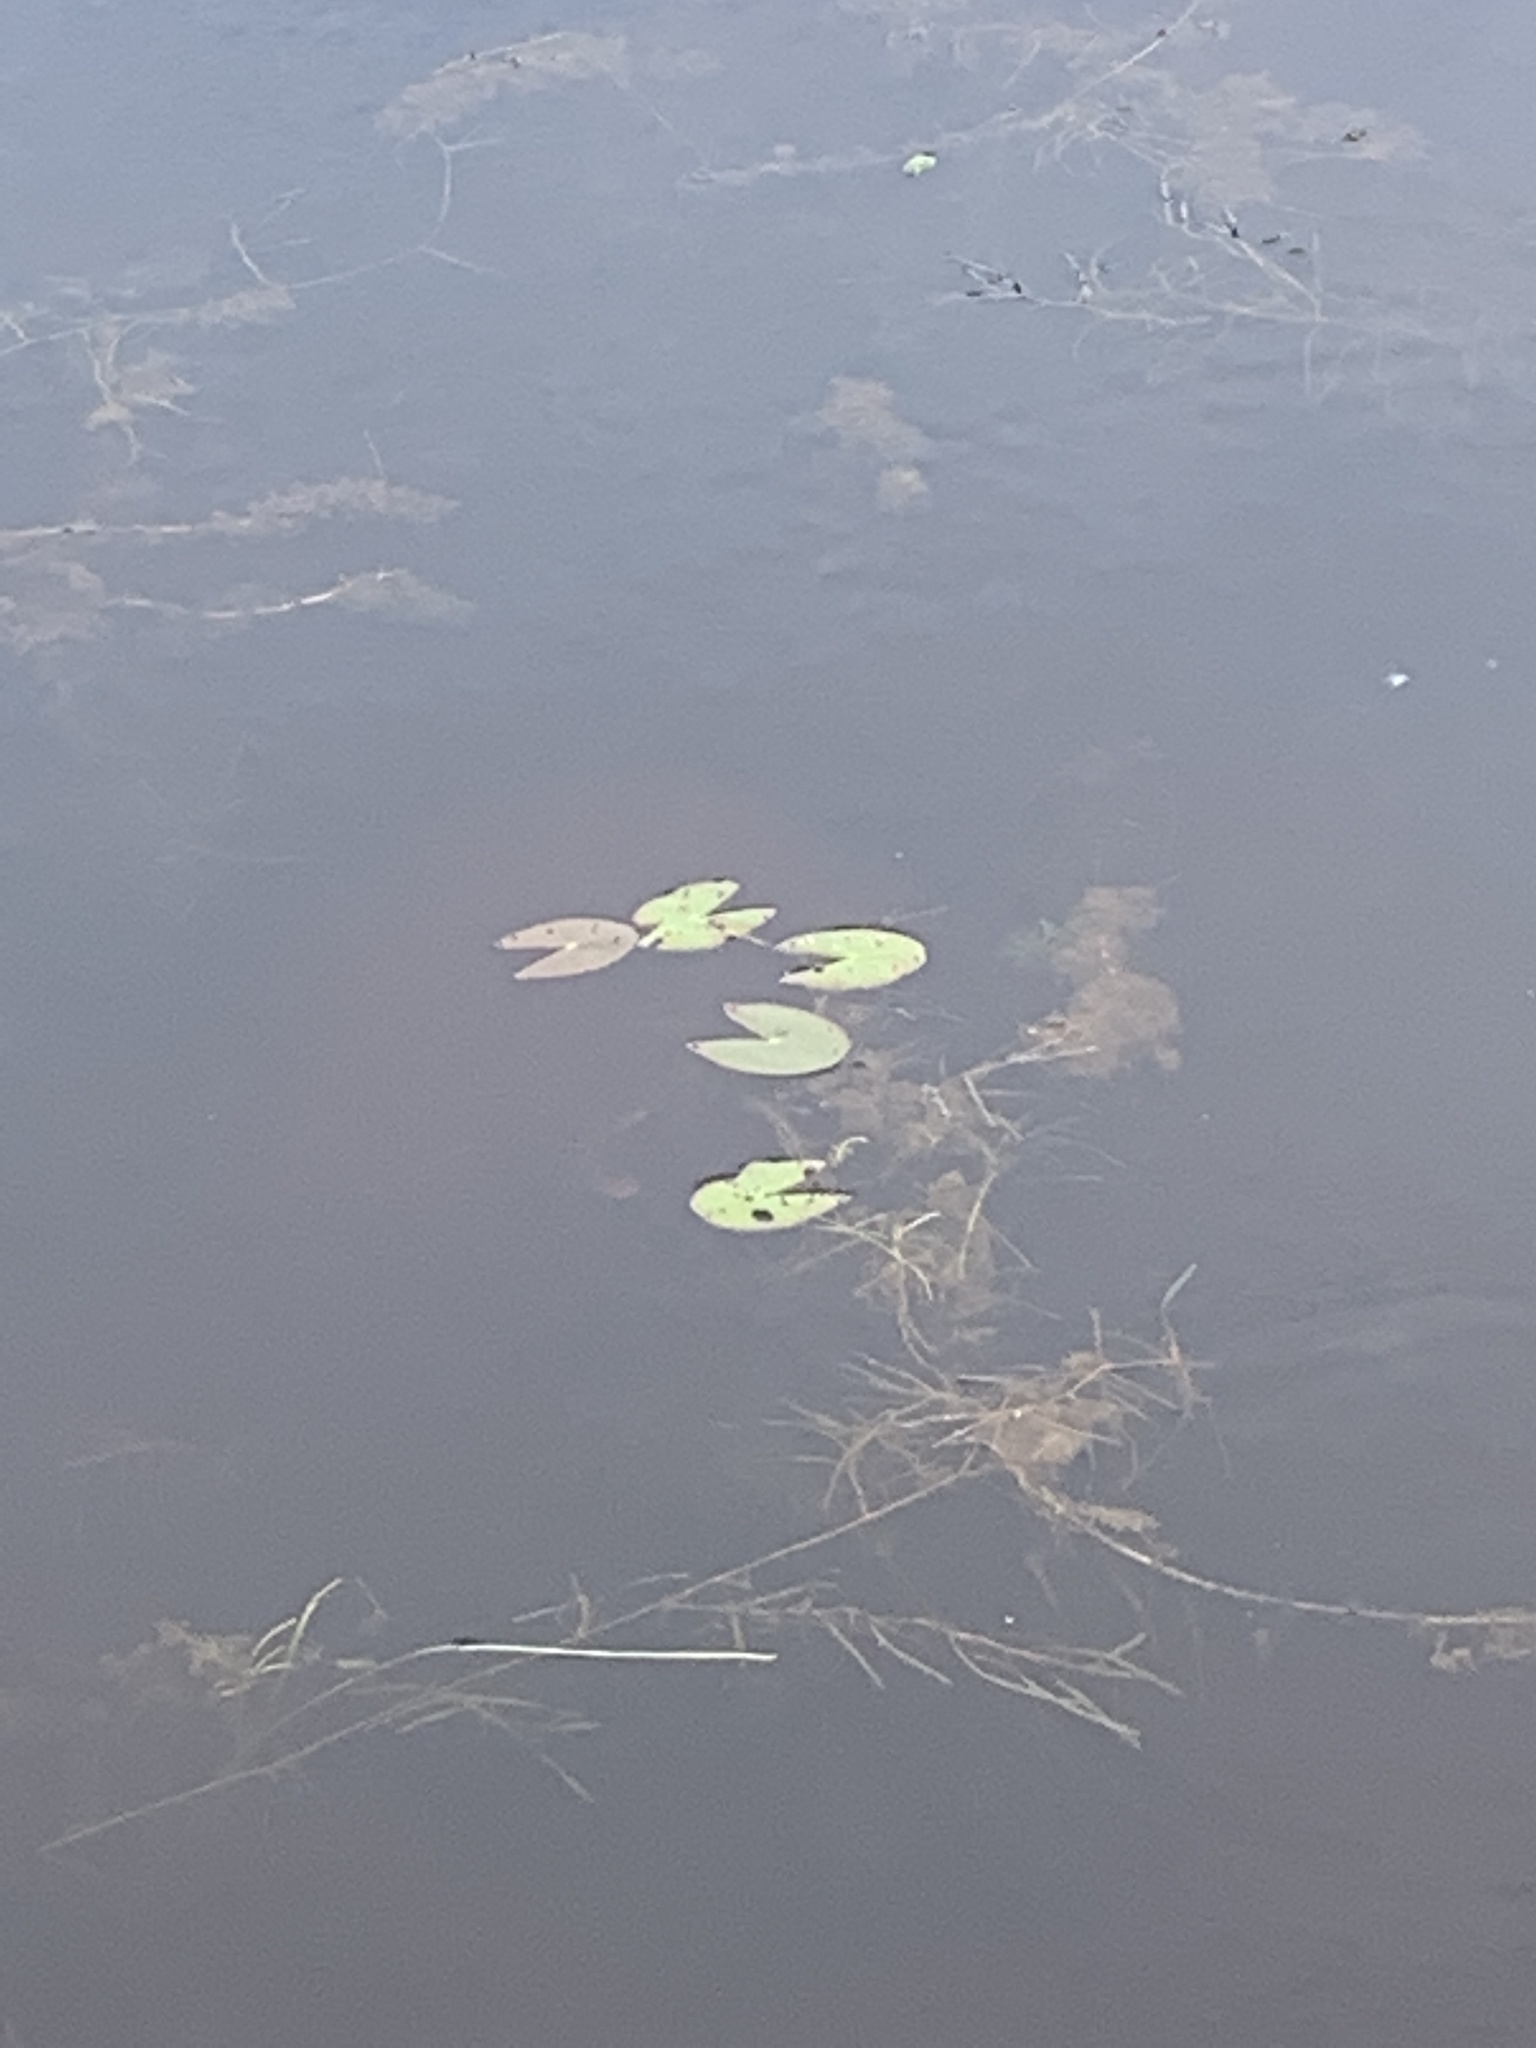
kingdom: Plantae
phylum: Tracheophyta
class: Magnoliopsida
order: Nymphaeales
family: Nymphaeaceae
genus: Nymphaea
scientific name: Nymphaea leibergii
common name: Dwarf water-lily
